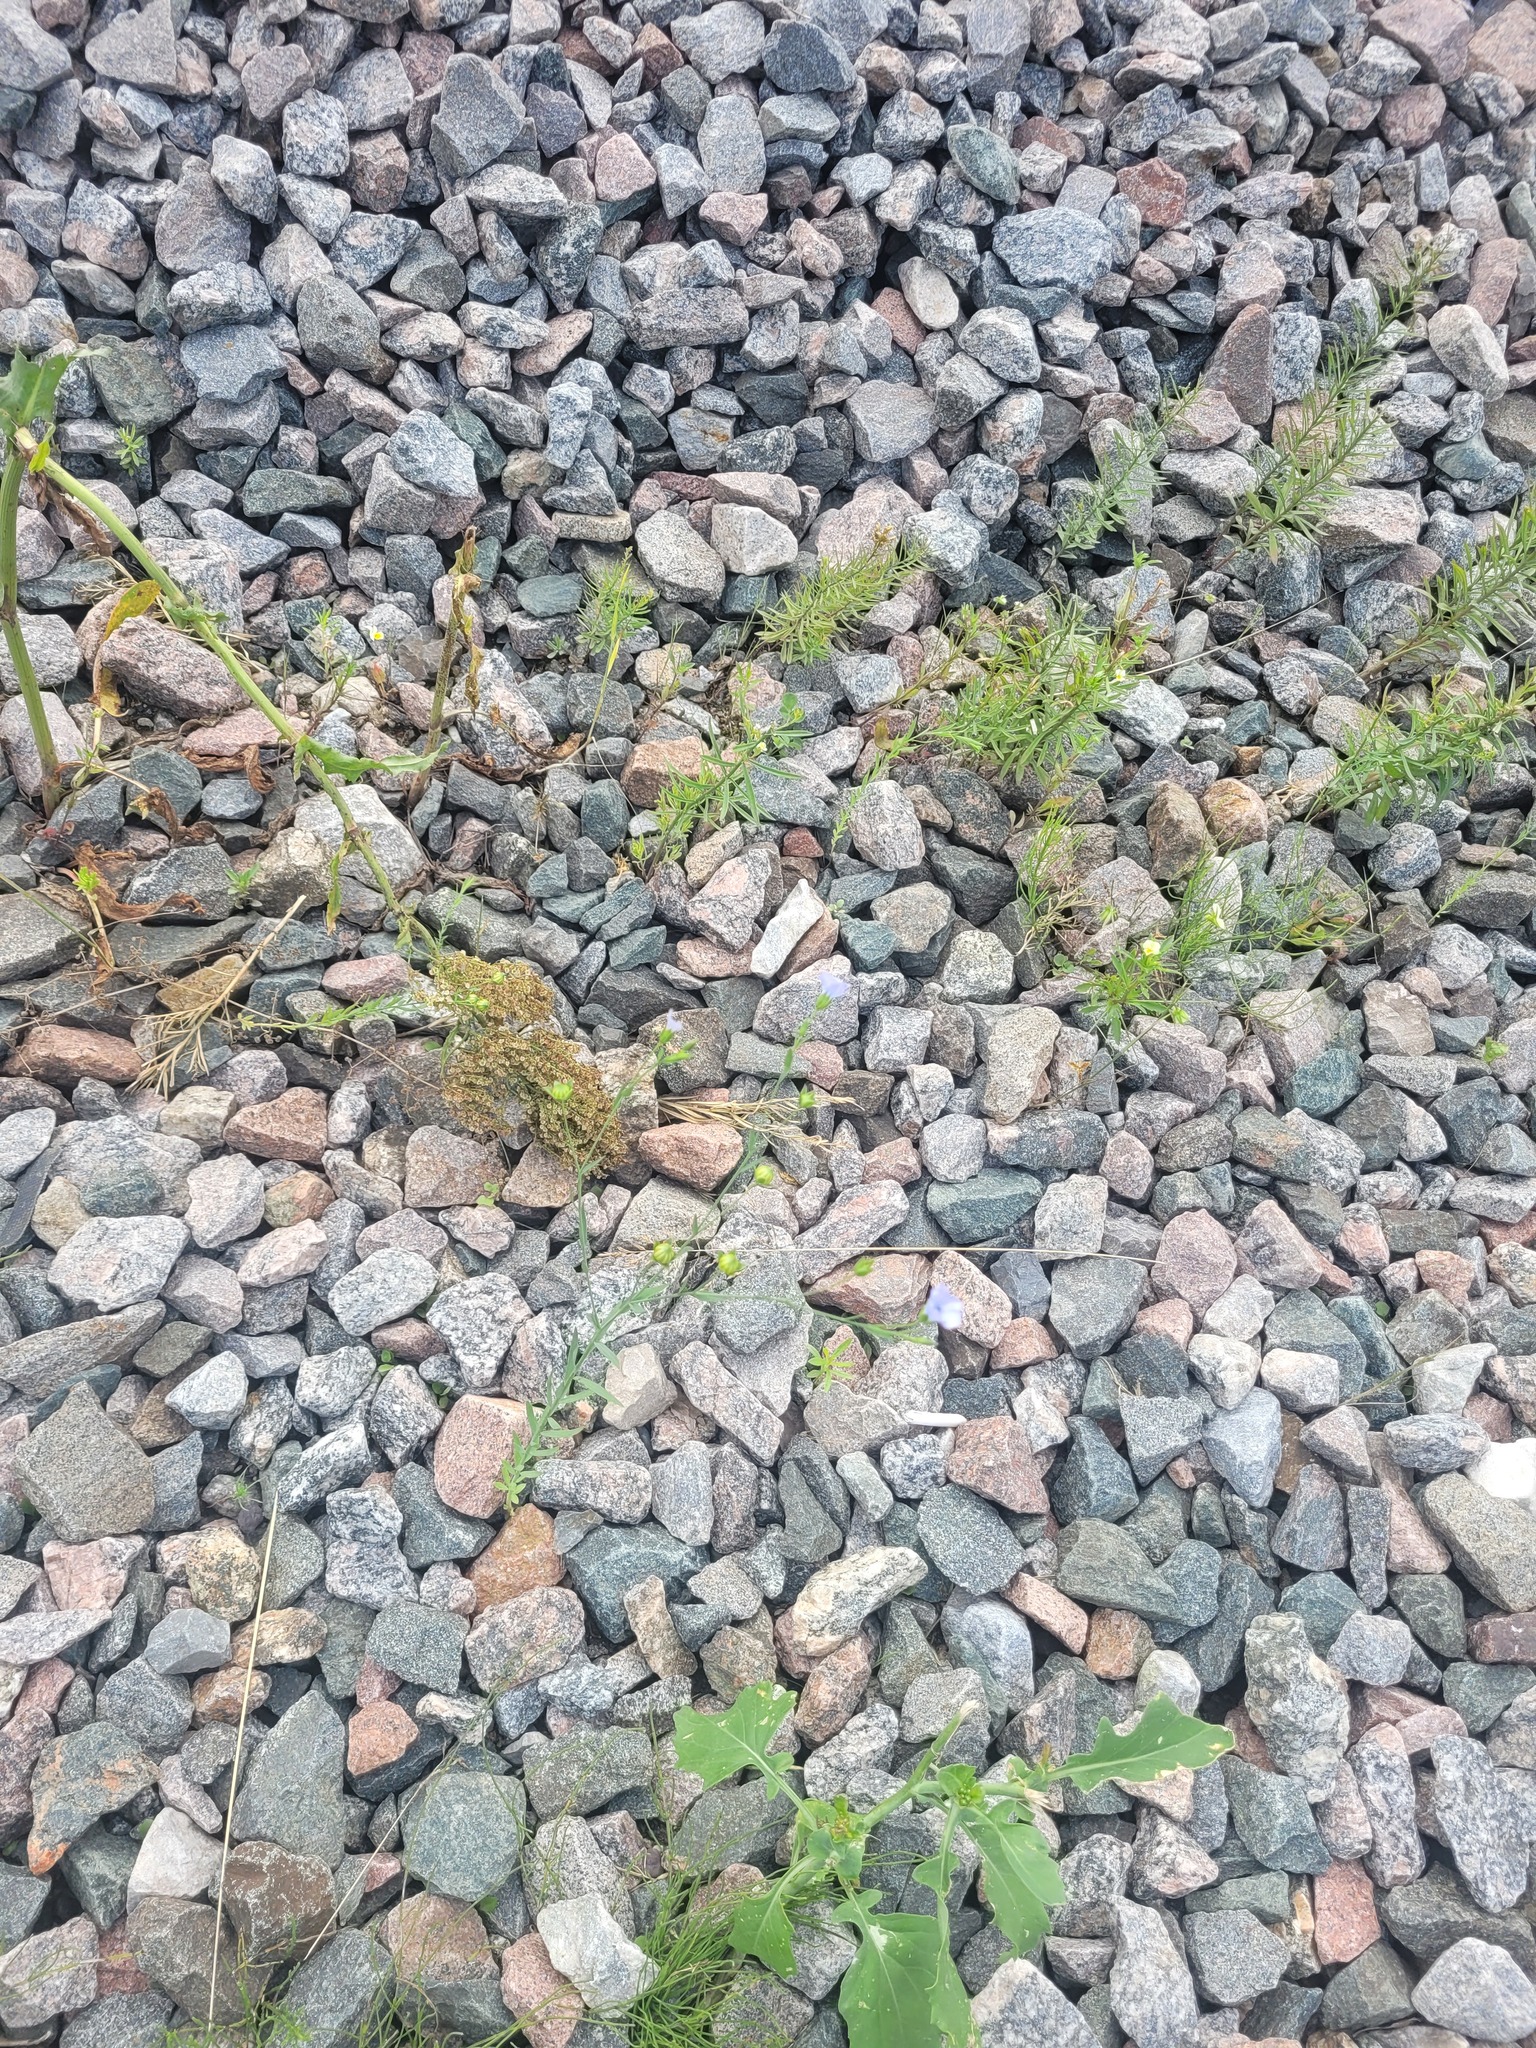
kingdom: Plantae
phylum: Tracheophyta
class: Magnoliopsida
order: Malpighiales
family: Linaceae
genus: Linum
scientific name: Linum usitatissimum
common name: Flax
